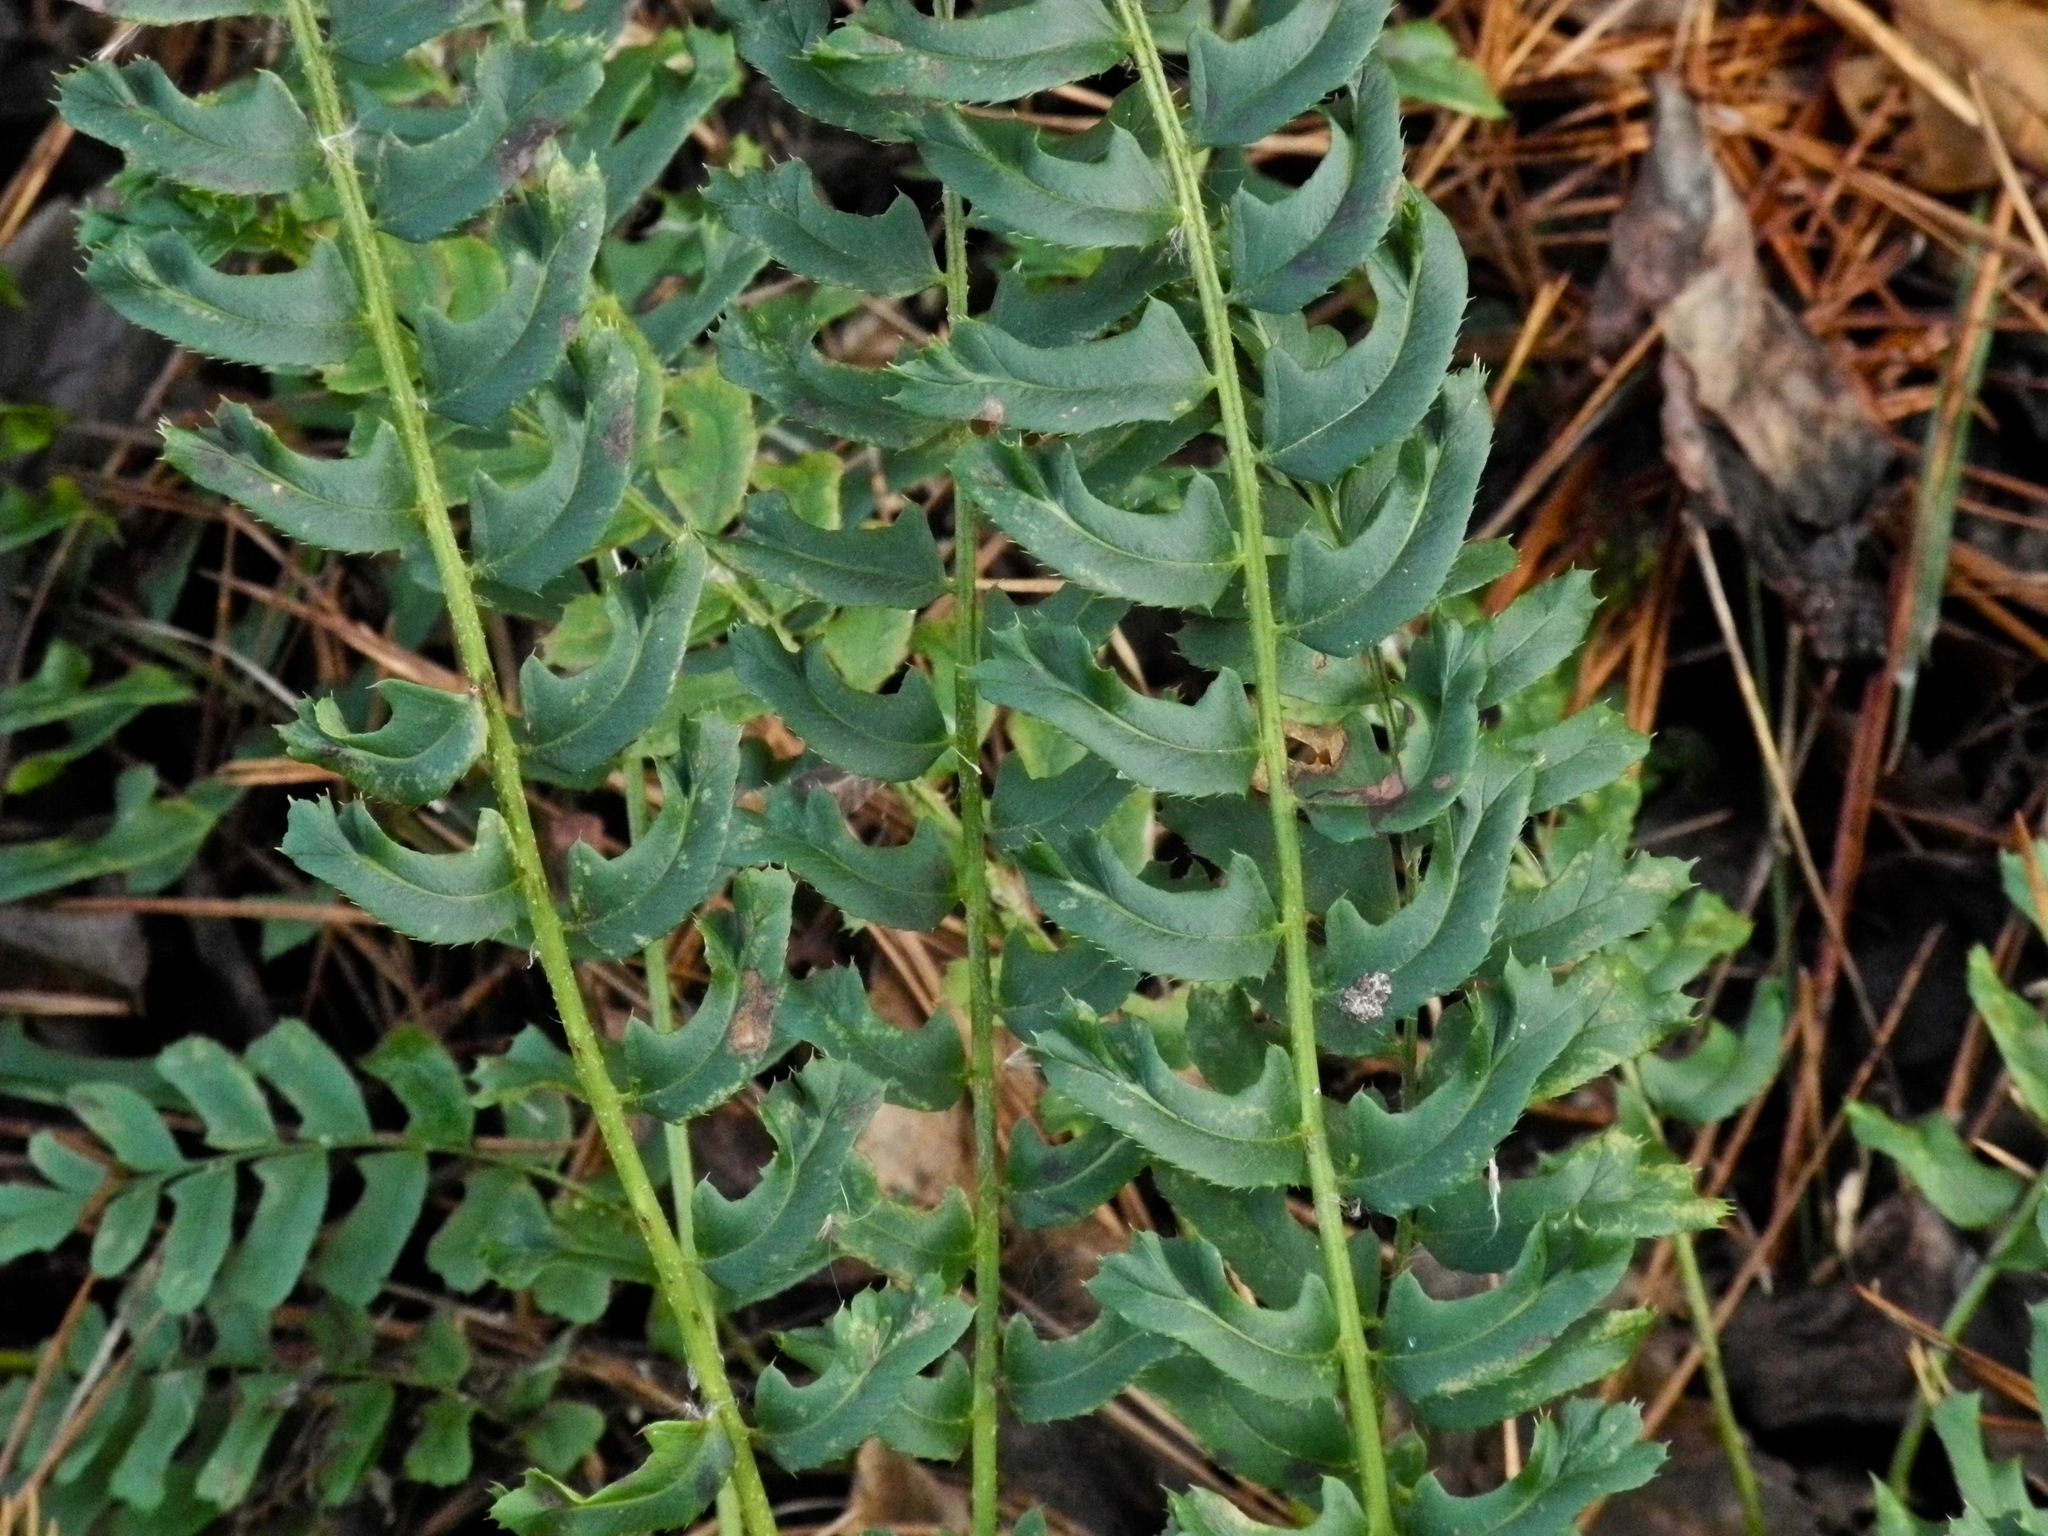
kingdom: Plantae
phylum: Tracheophyta
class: Polypodiopsida
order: Polypodiales
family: Dryopteridaceae
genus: Polystichum
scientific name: Polystichum acrostichoides
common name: Christmas fern
